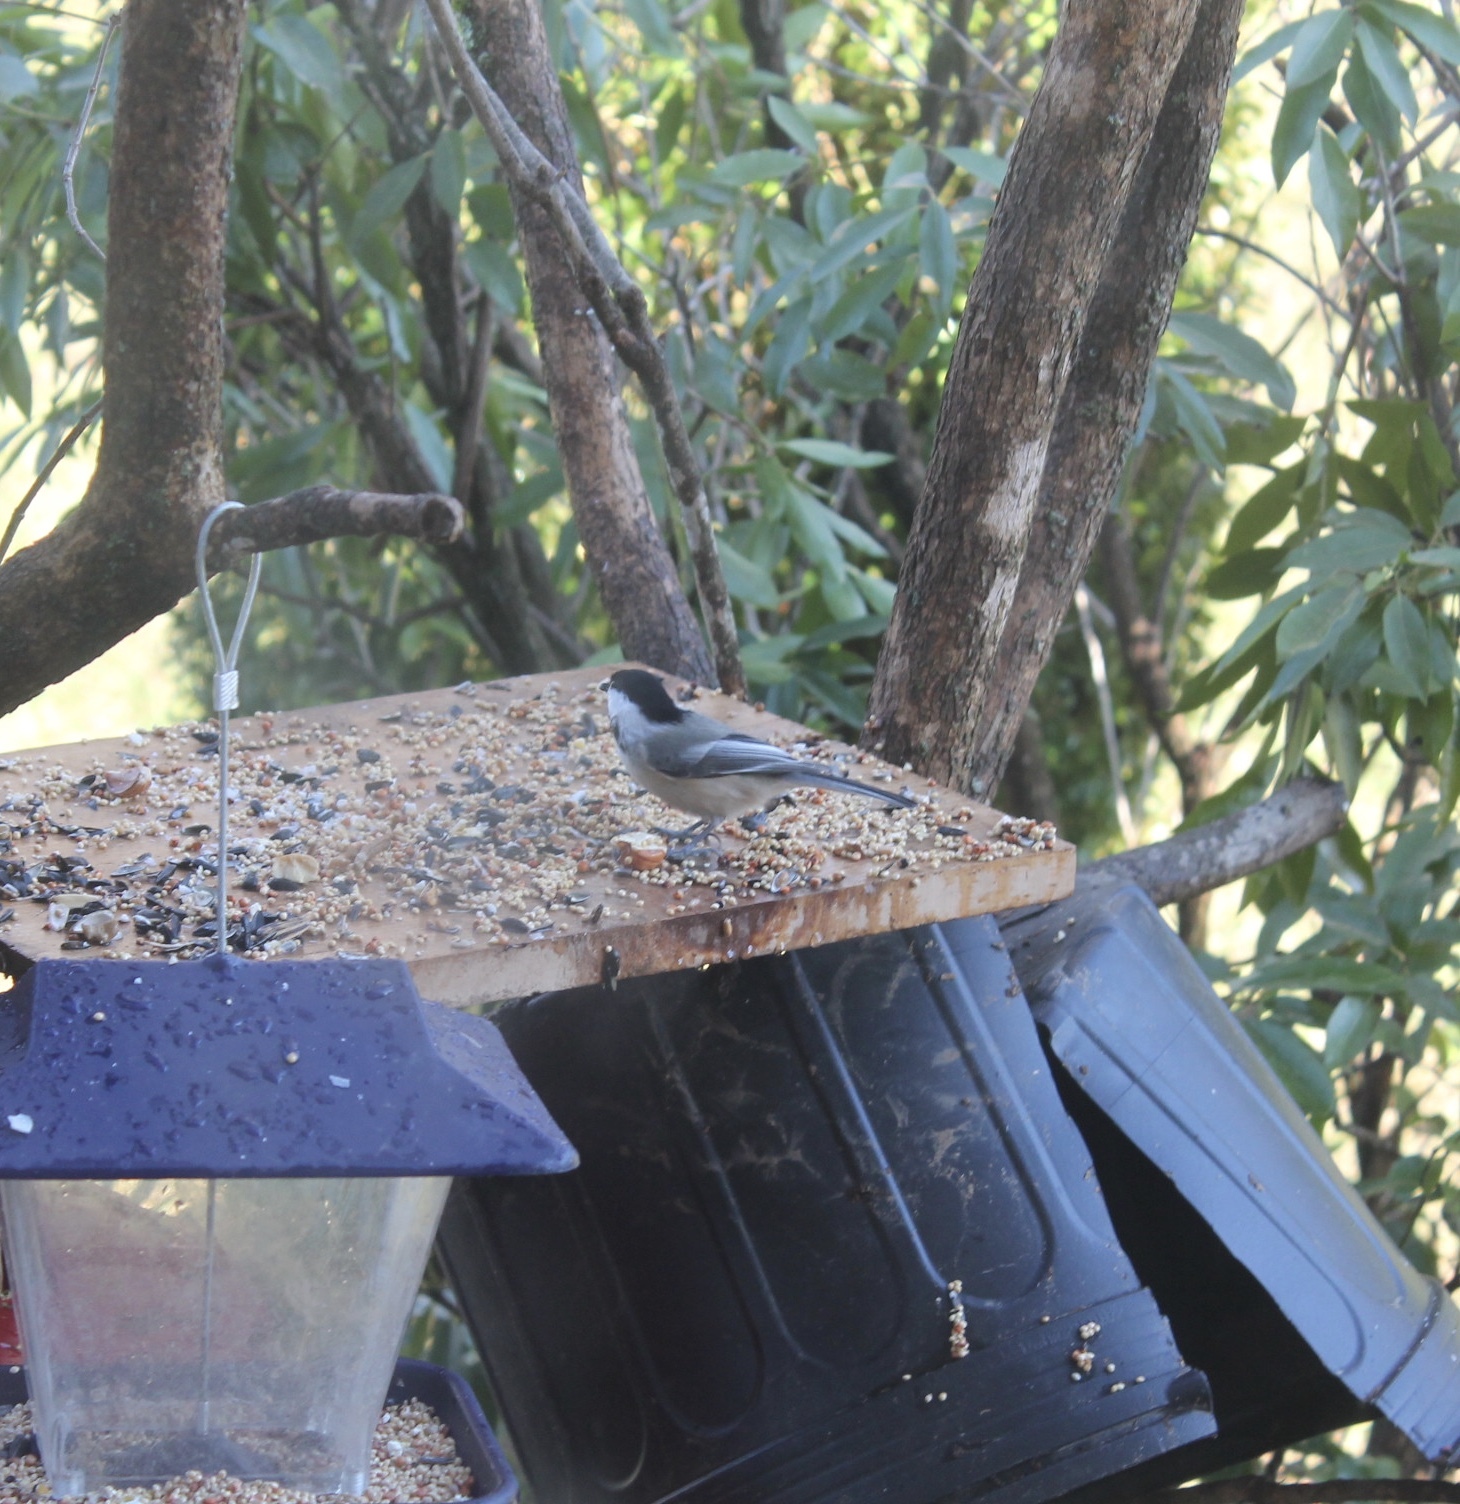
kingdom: Animalia
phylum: Chordata
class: Aves
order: Passeriformes
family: Paridae
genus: Poecile
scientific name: Poecile atricapillus
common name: Black-capped chickadee
